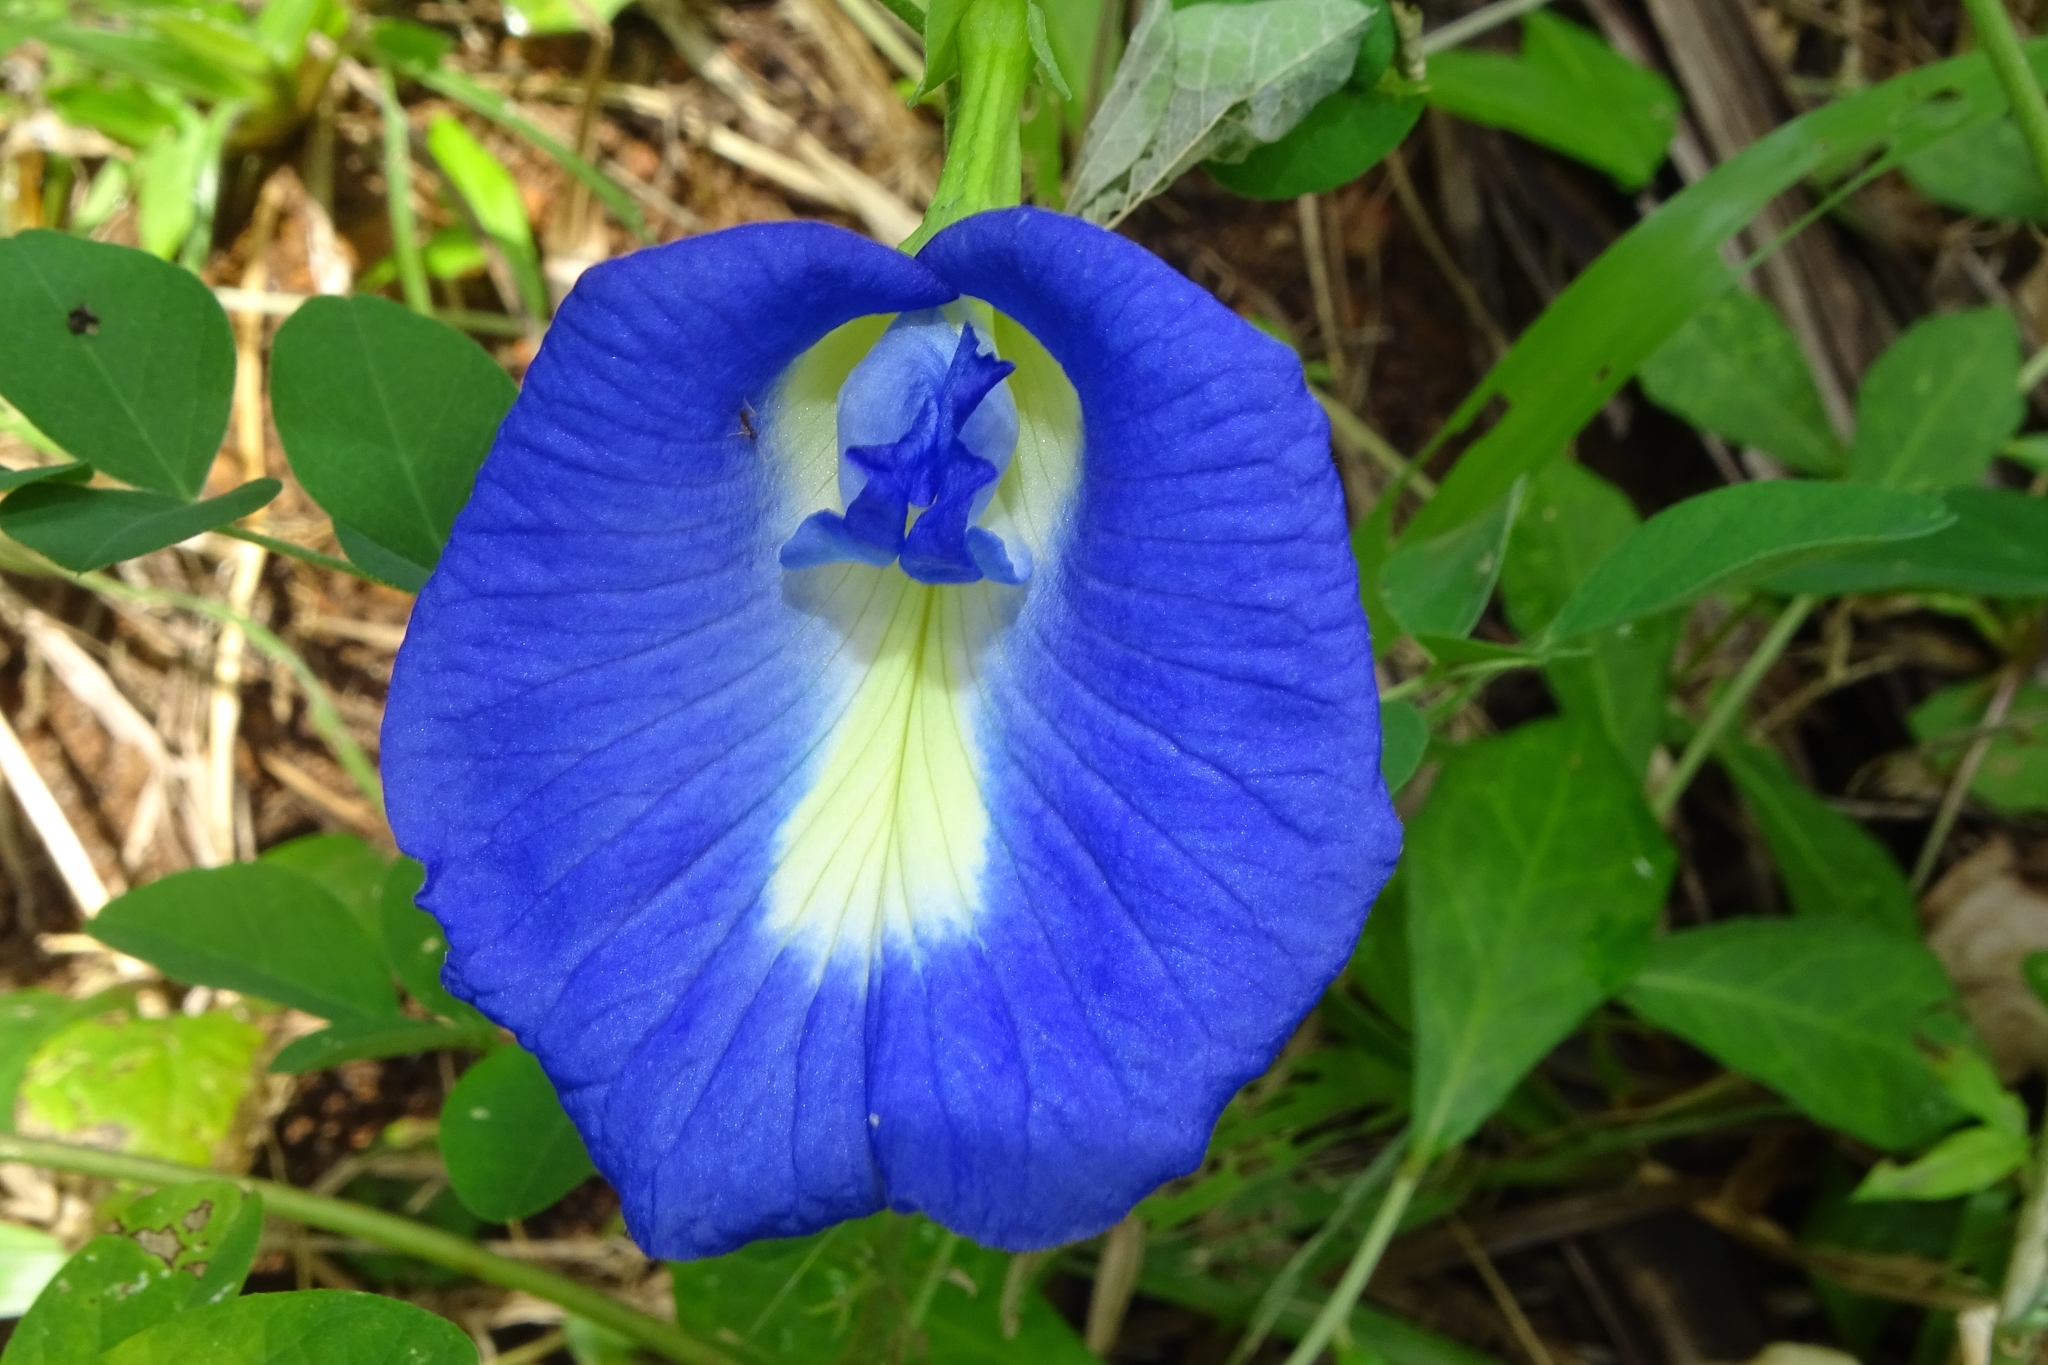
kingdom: Plantae
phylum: Tracheophyta
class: Magnoliopsida
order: Fabales
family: Fabaceae
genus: Clitoria
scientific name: Clitoria ternatea
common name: Asian pigeonwings
